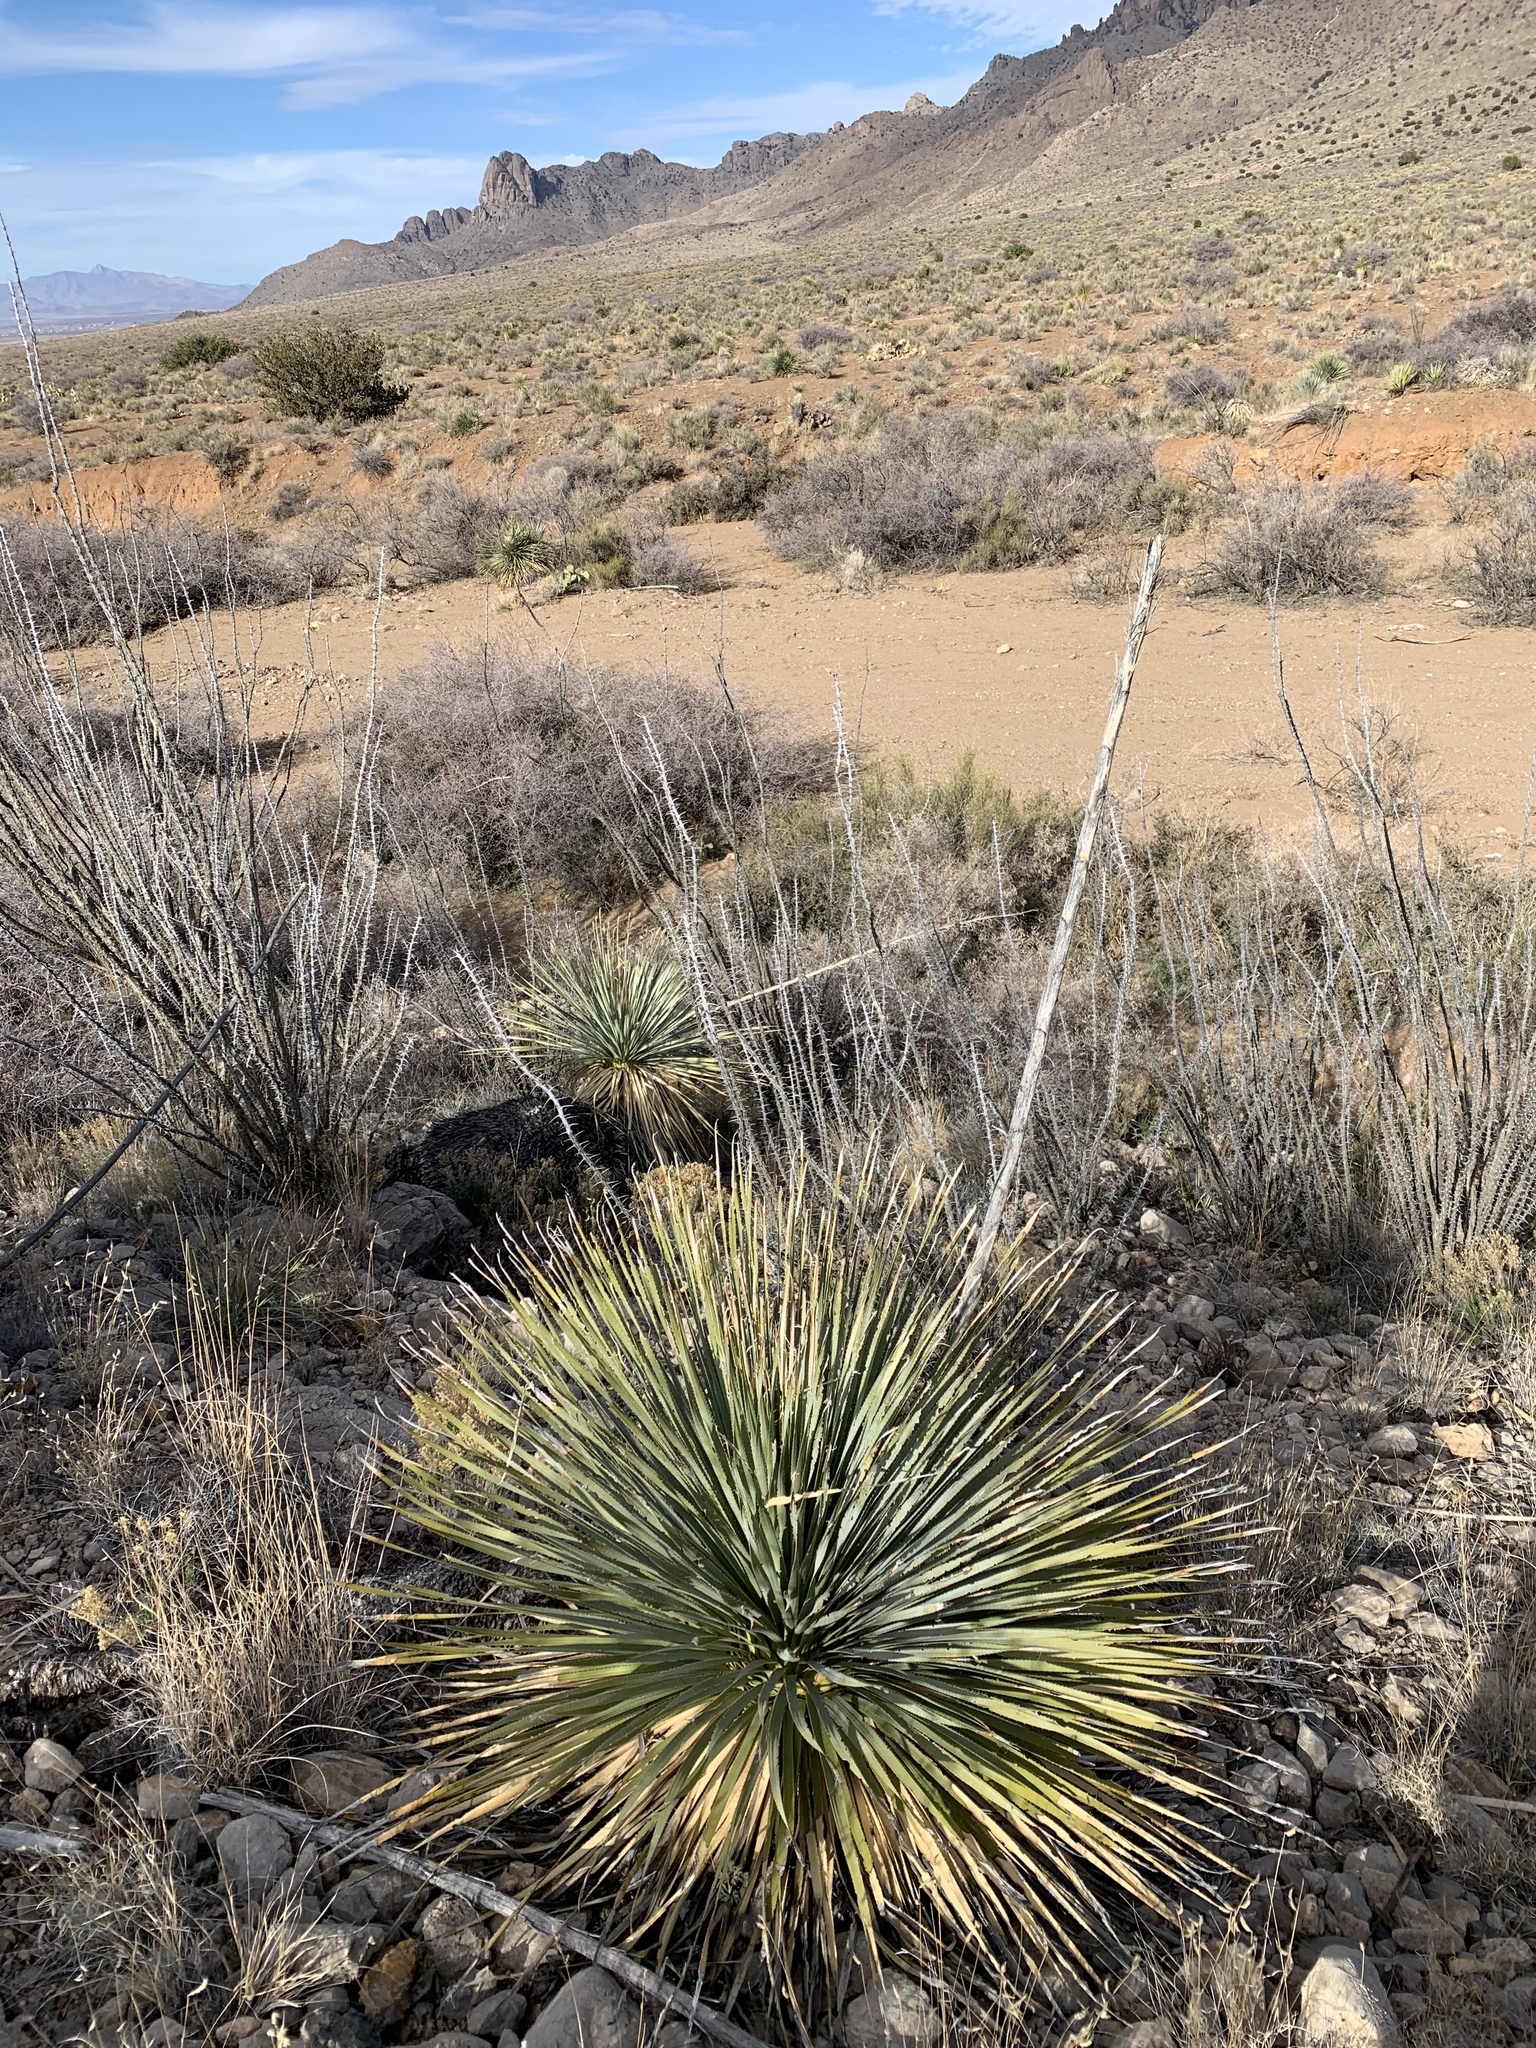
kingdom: Plantae
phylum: Tracheophyta
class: Liliopsida
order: Asparagales
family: Asparagaceae
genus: Dasylirion
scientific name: Dasylirion wheeleri
